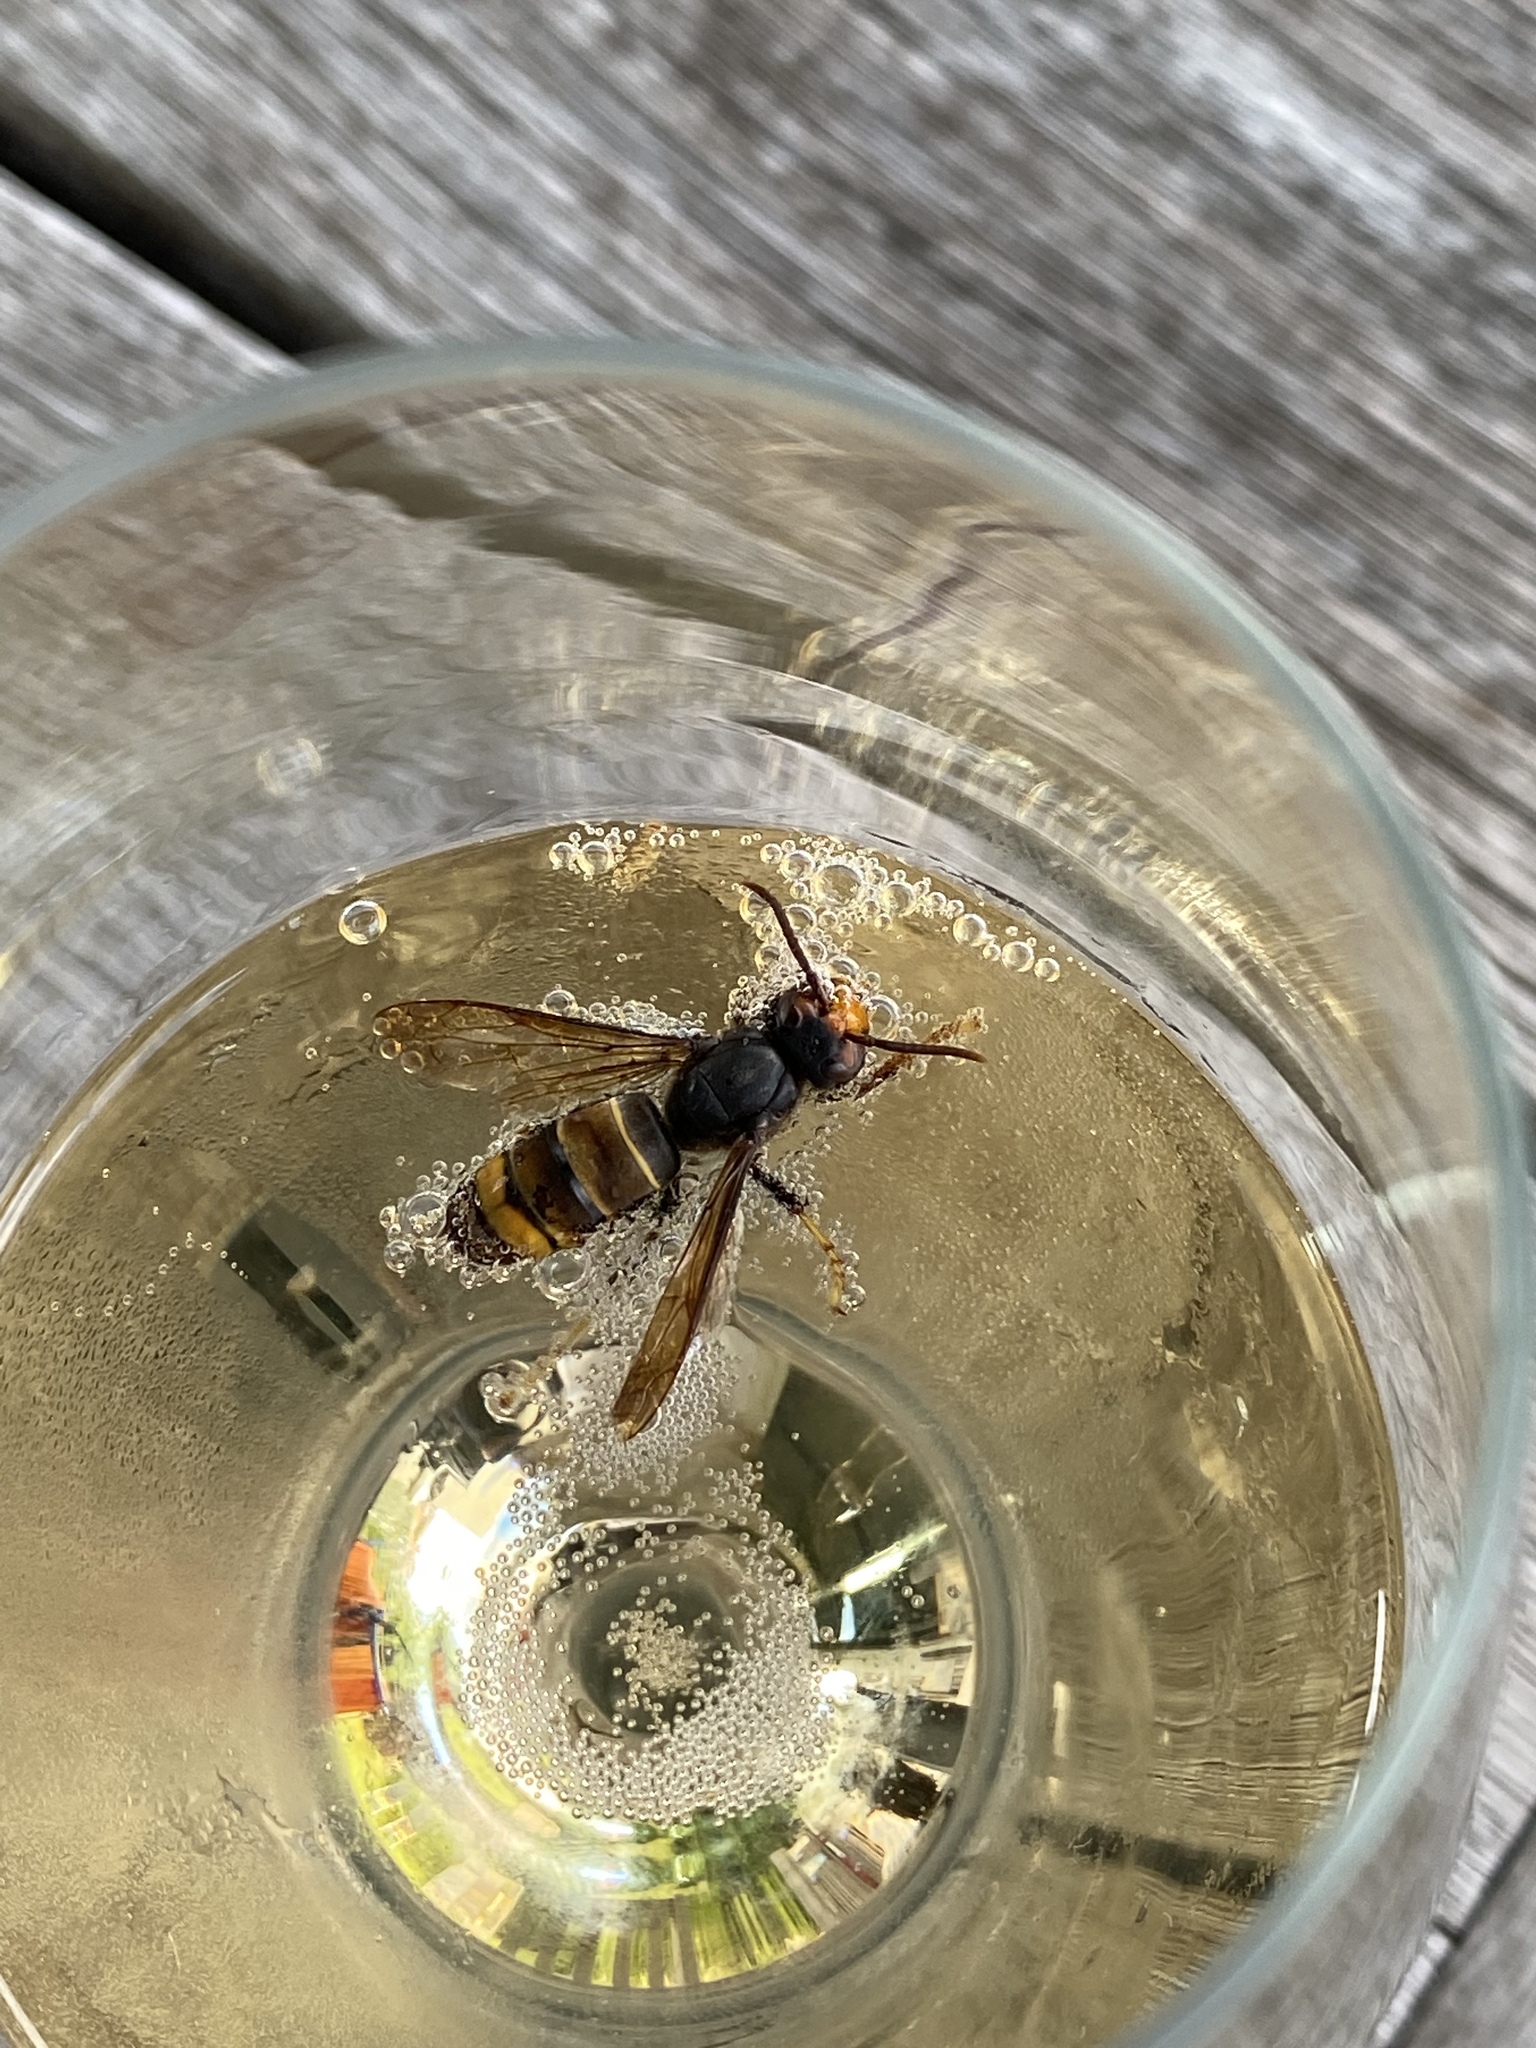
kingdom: Animalia
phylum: Arthropoda
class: Insecta
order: Hymenoptera
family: Vespidae
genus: Vespa
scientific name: Vespa velutina
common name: Asian hornet
